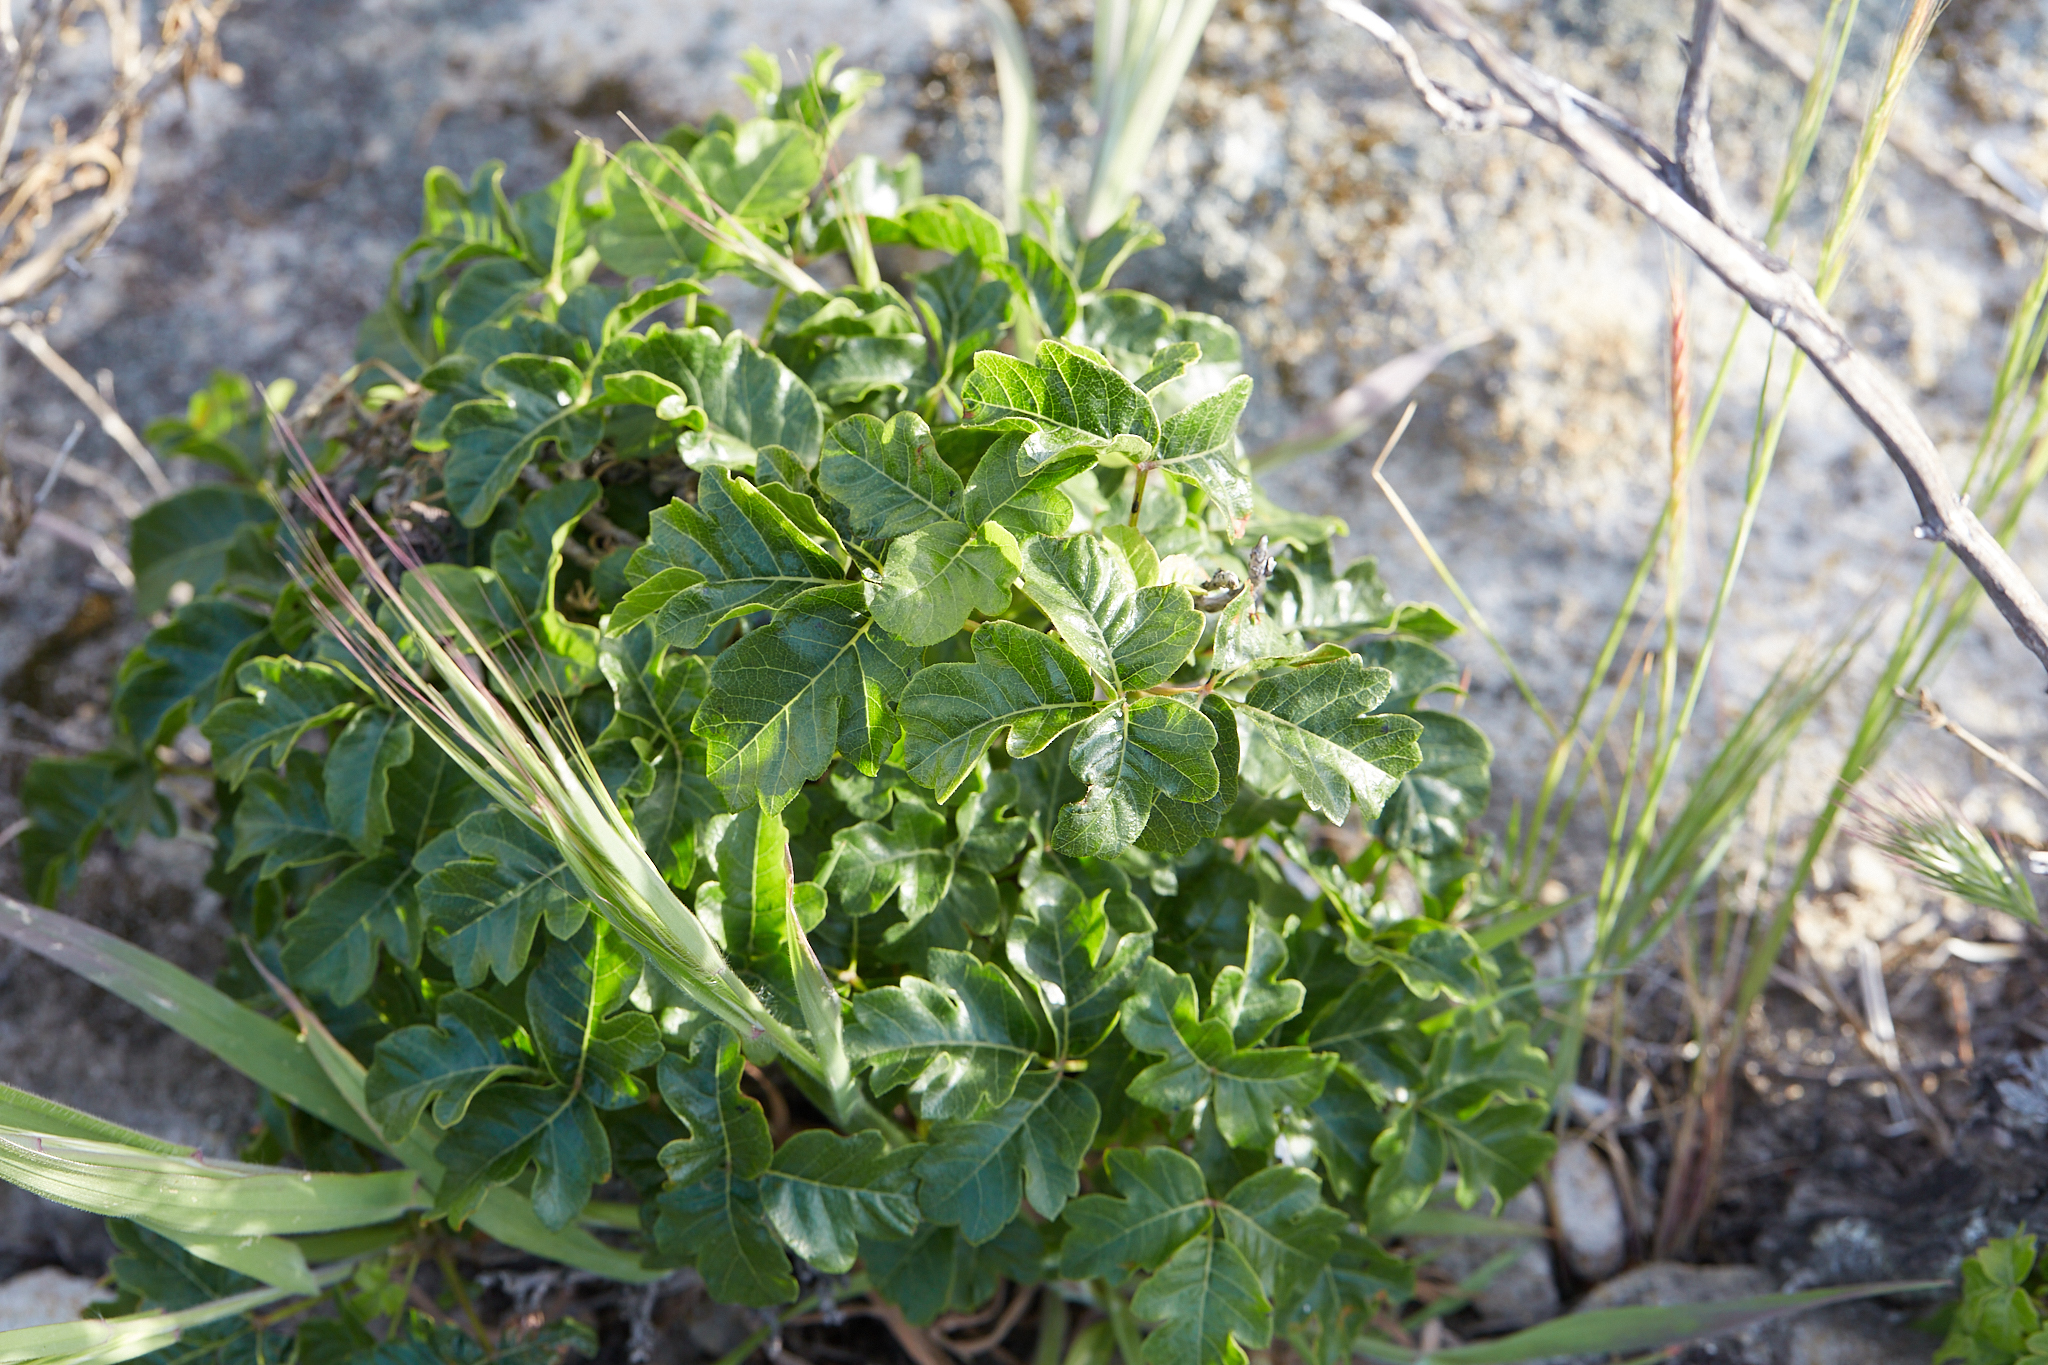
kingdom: Plantae
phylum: Tracheophyta
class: Magnoliopsida
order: Sapindales
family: Anacardiaceae
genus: Toxicodendron
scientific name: Toxicodendron diversilobum
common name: Pacific poison-oak
